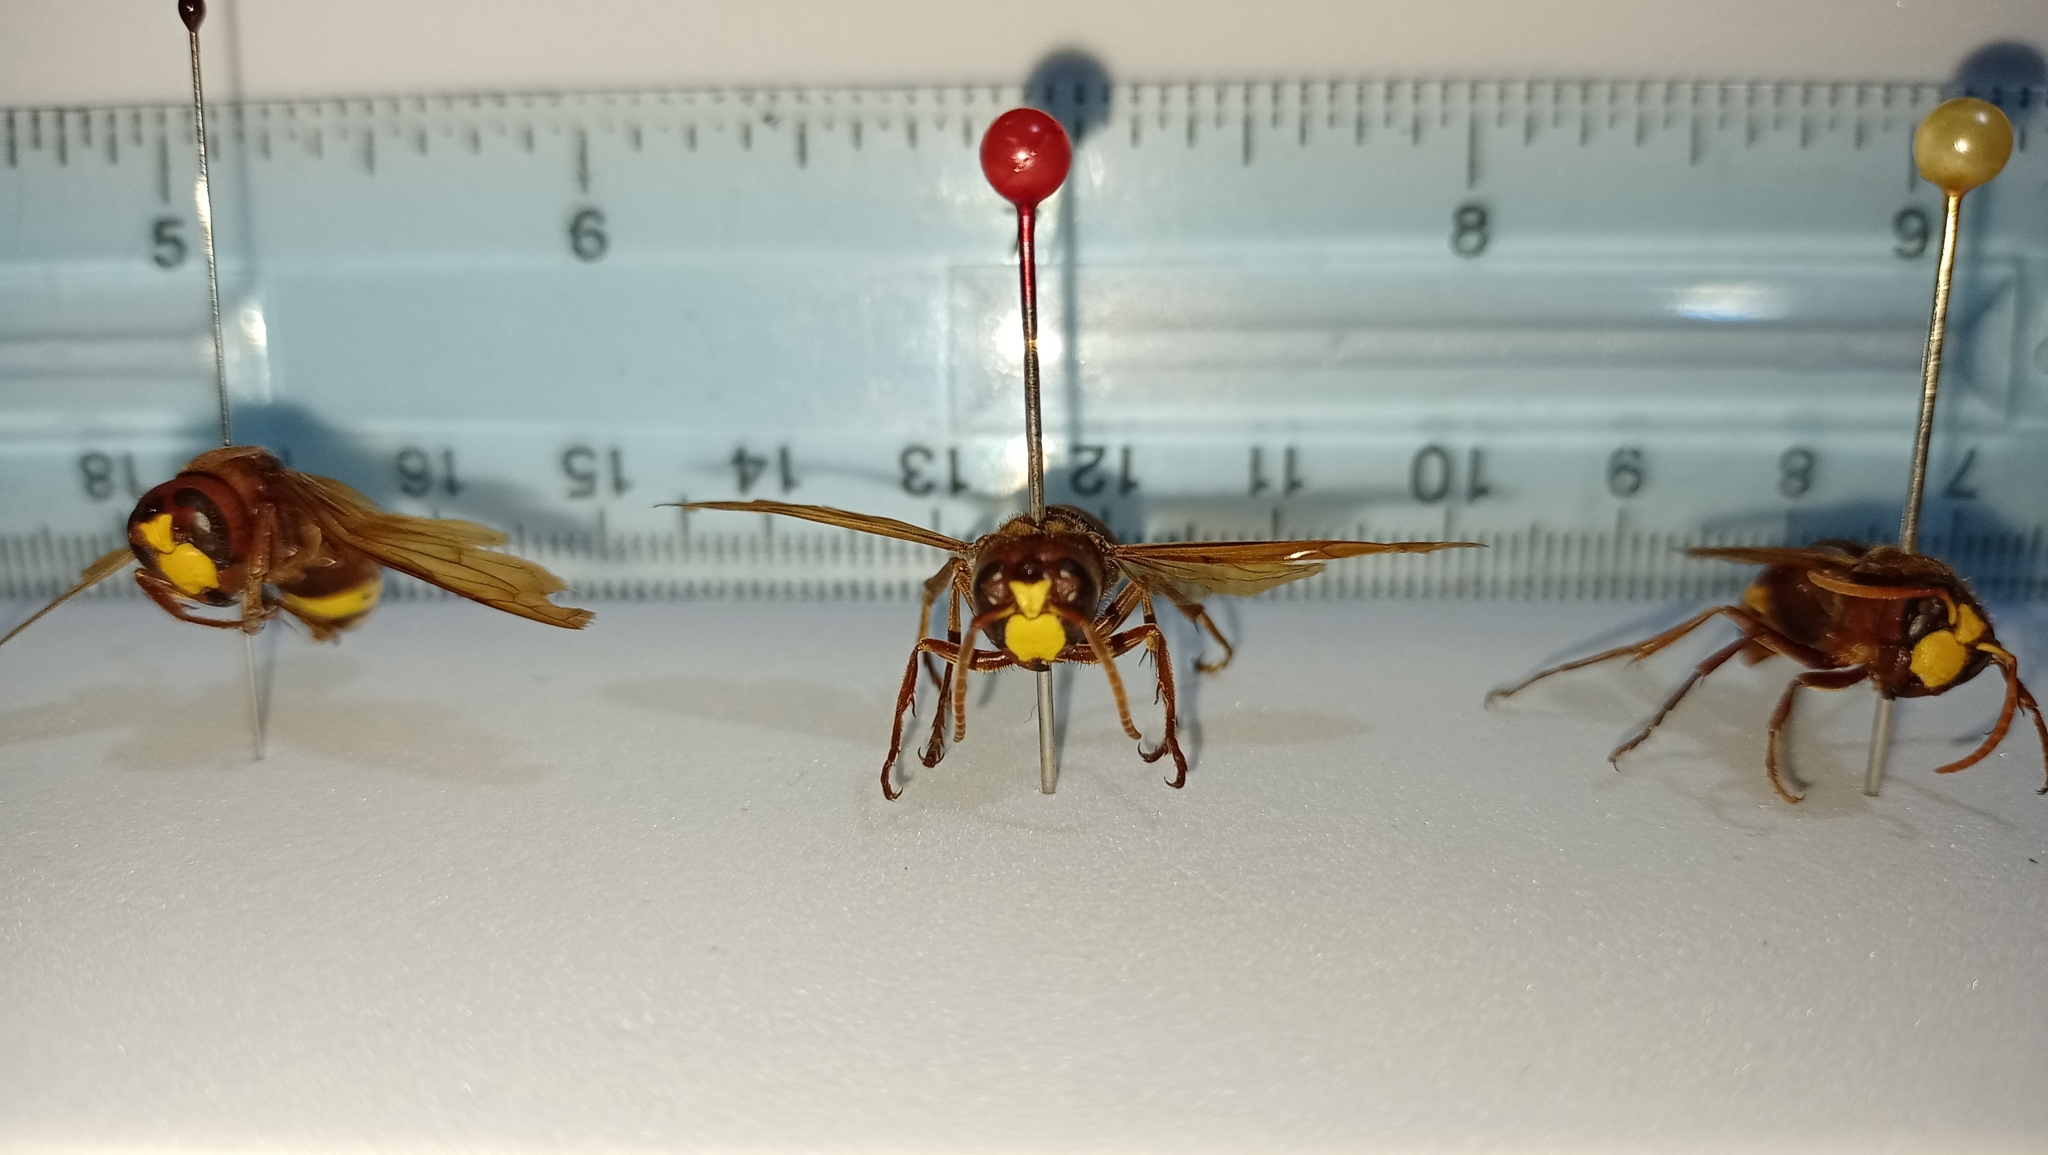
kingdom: Animalia
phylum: Arthropoda
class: Insecta
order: Hymenoptera
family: Vespidae
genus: Vespa
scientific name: Vespa orientalis
